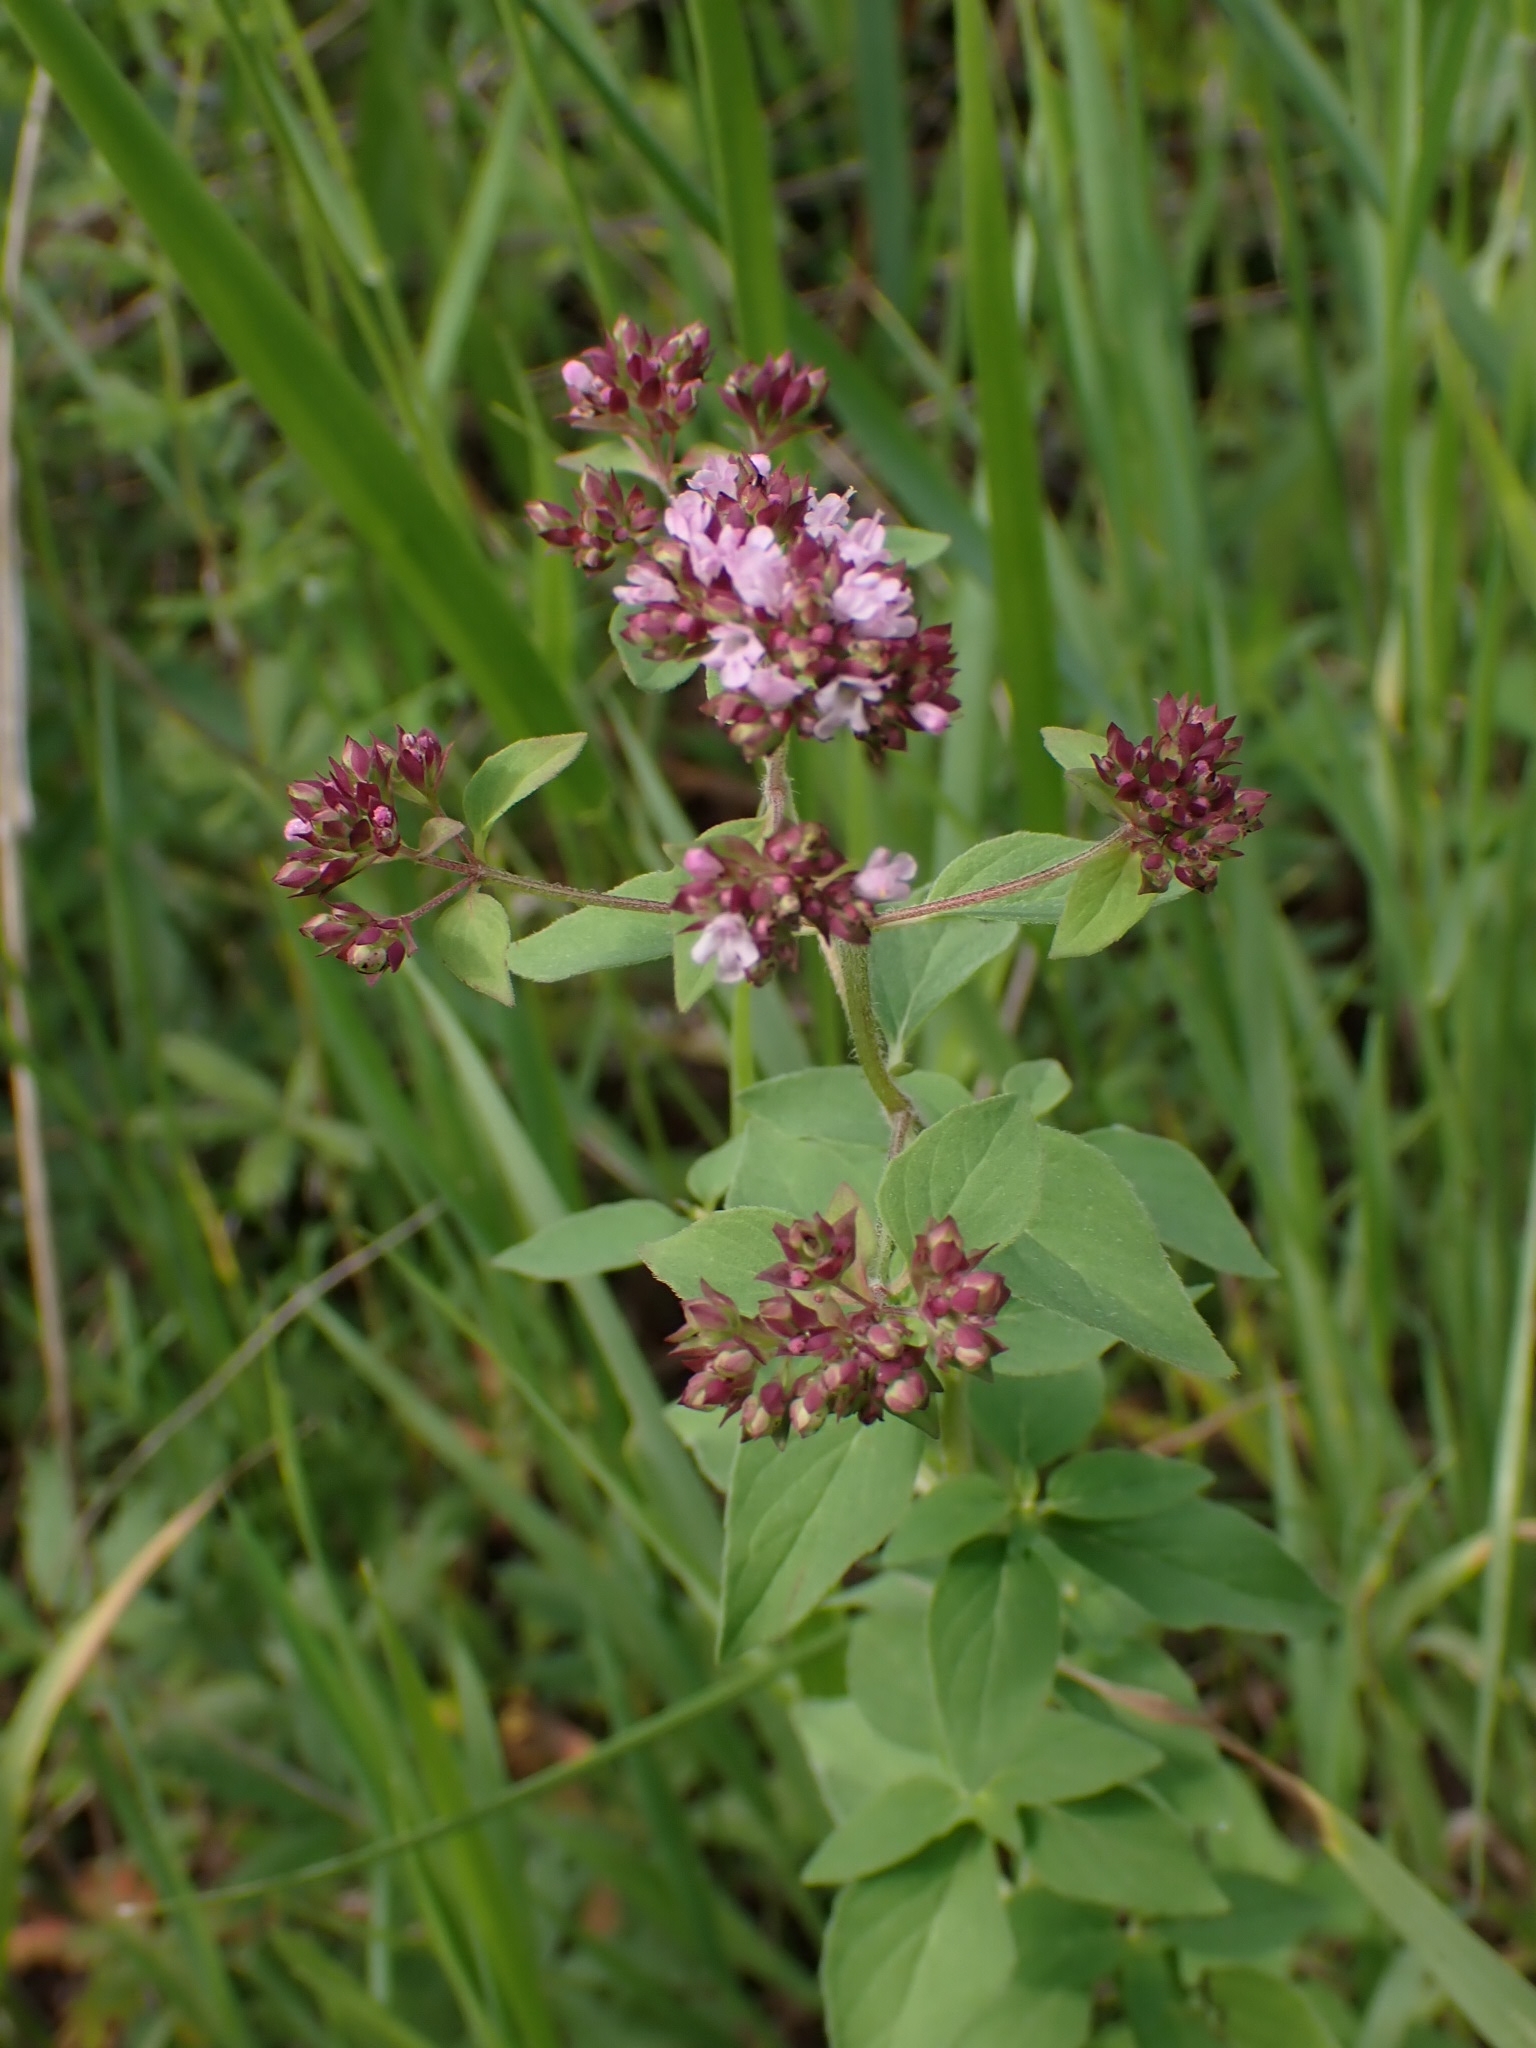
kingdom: Plantae
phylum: Tracheophyta
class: Magnoliopsida
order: Lamiales
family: Lamiaceae
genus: Origanum
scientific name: Origanum vulgare
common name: Wild marjoram
